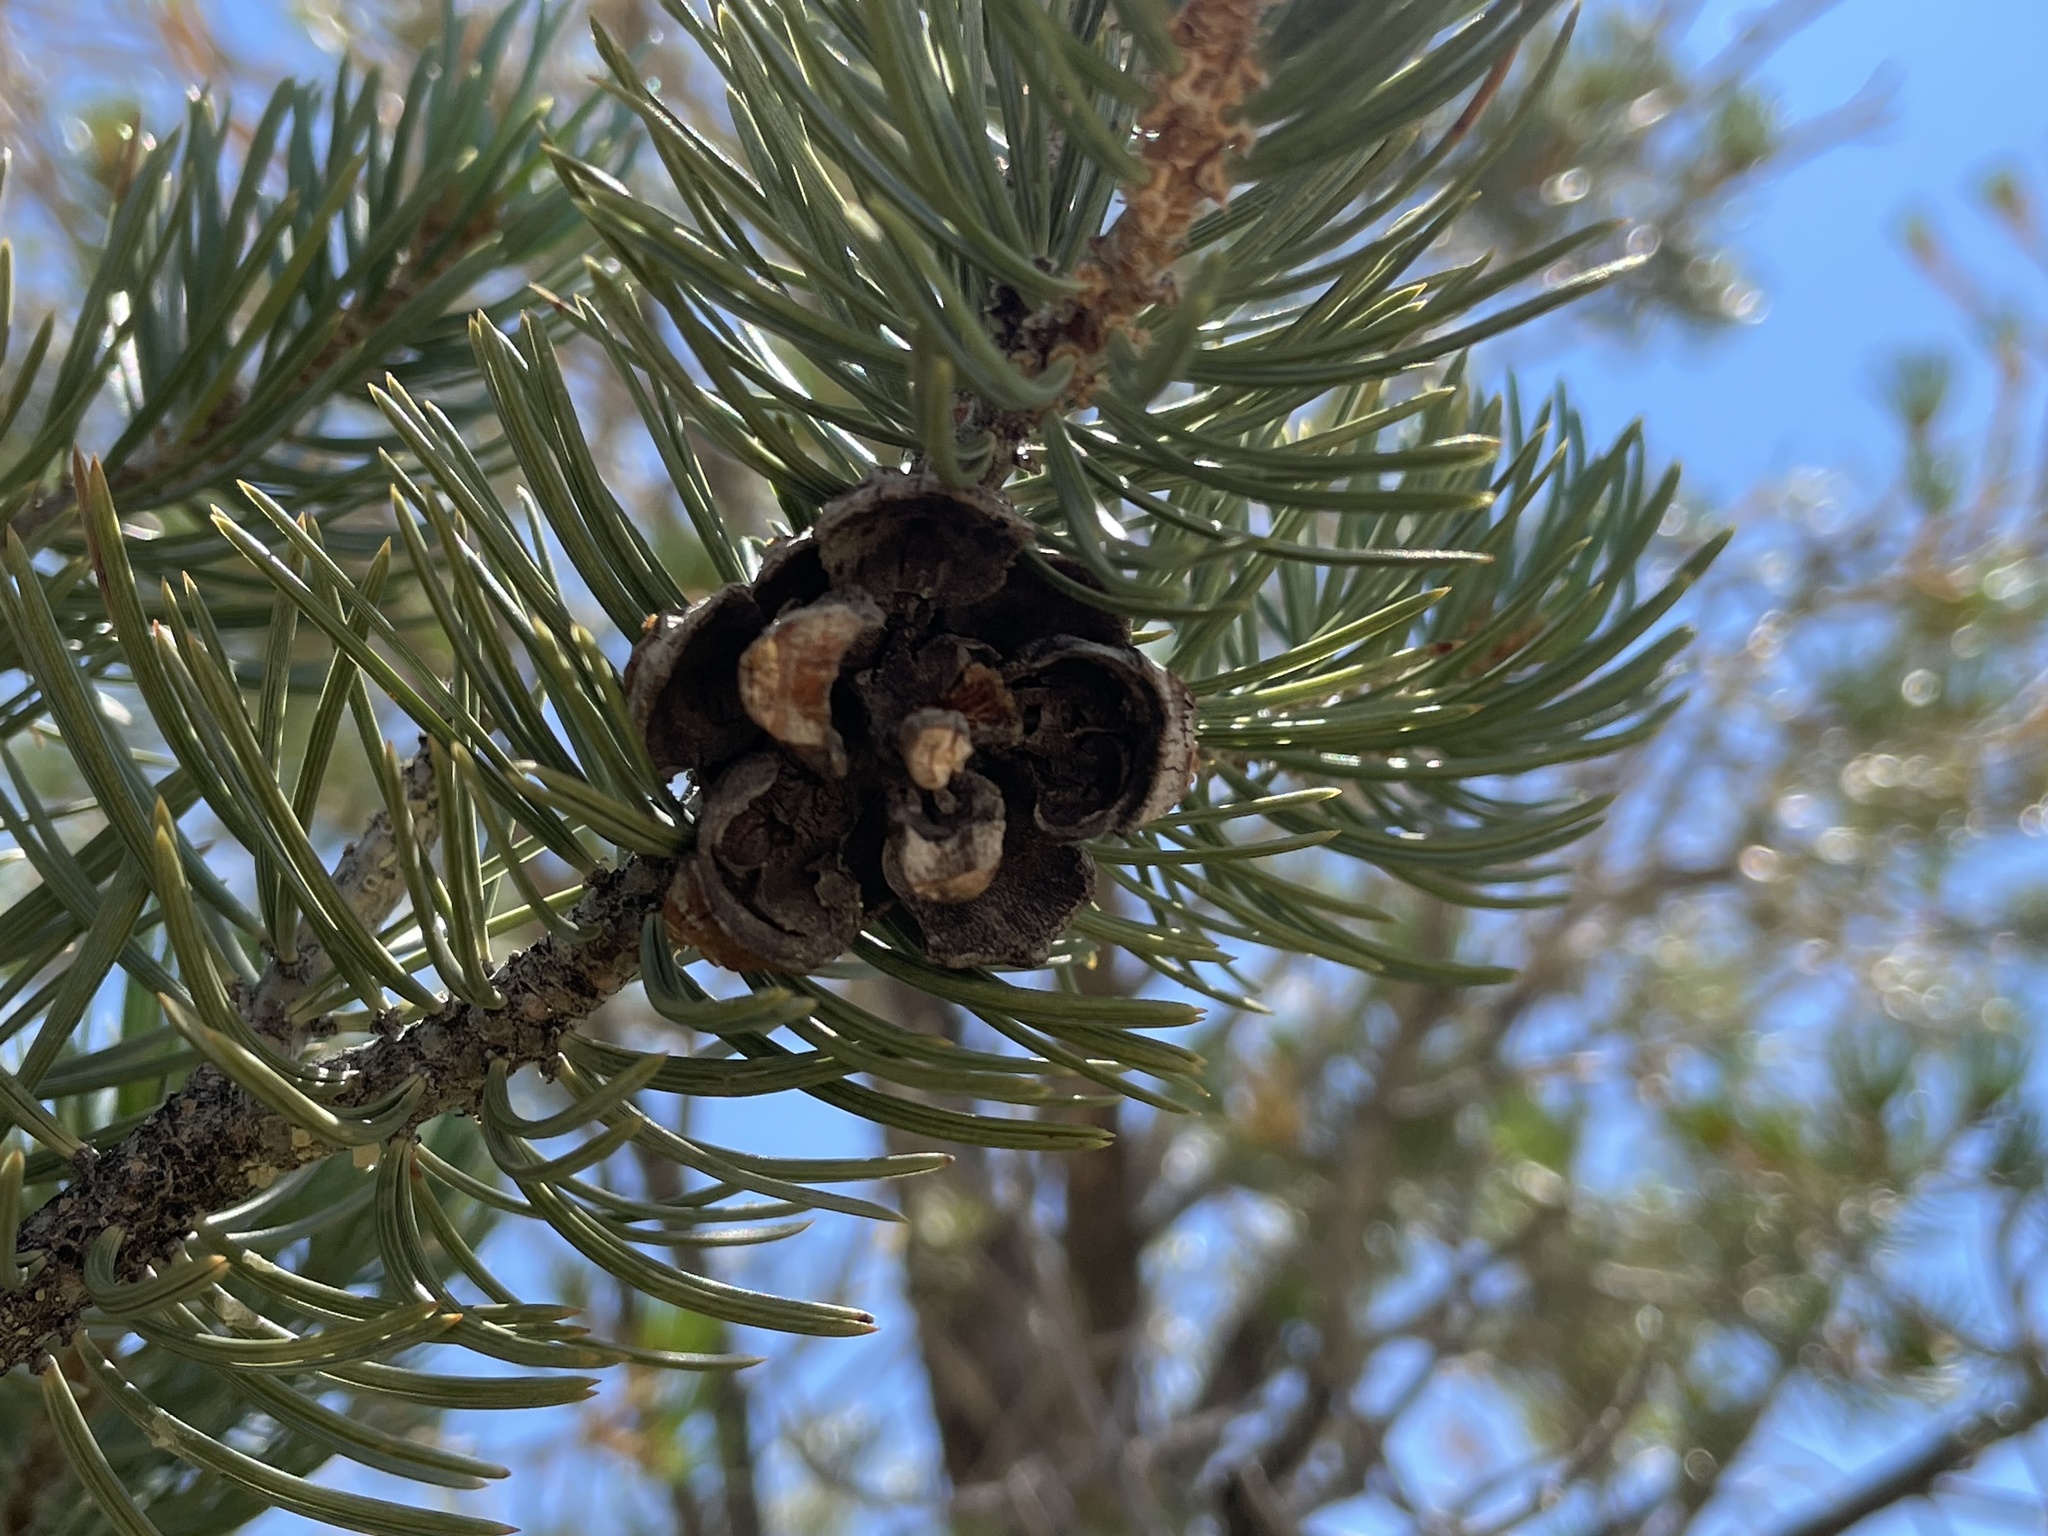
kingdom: Plantae
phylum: Tracheophyta
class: Pinopsida
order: Pinales
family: Pinaceae
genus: Pinus
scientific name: Pinus edulis
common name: Colorado pinyon
